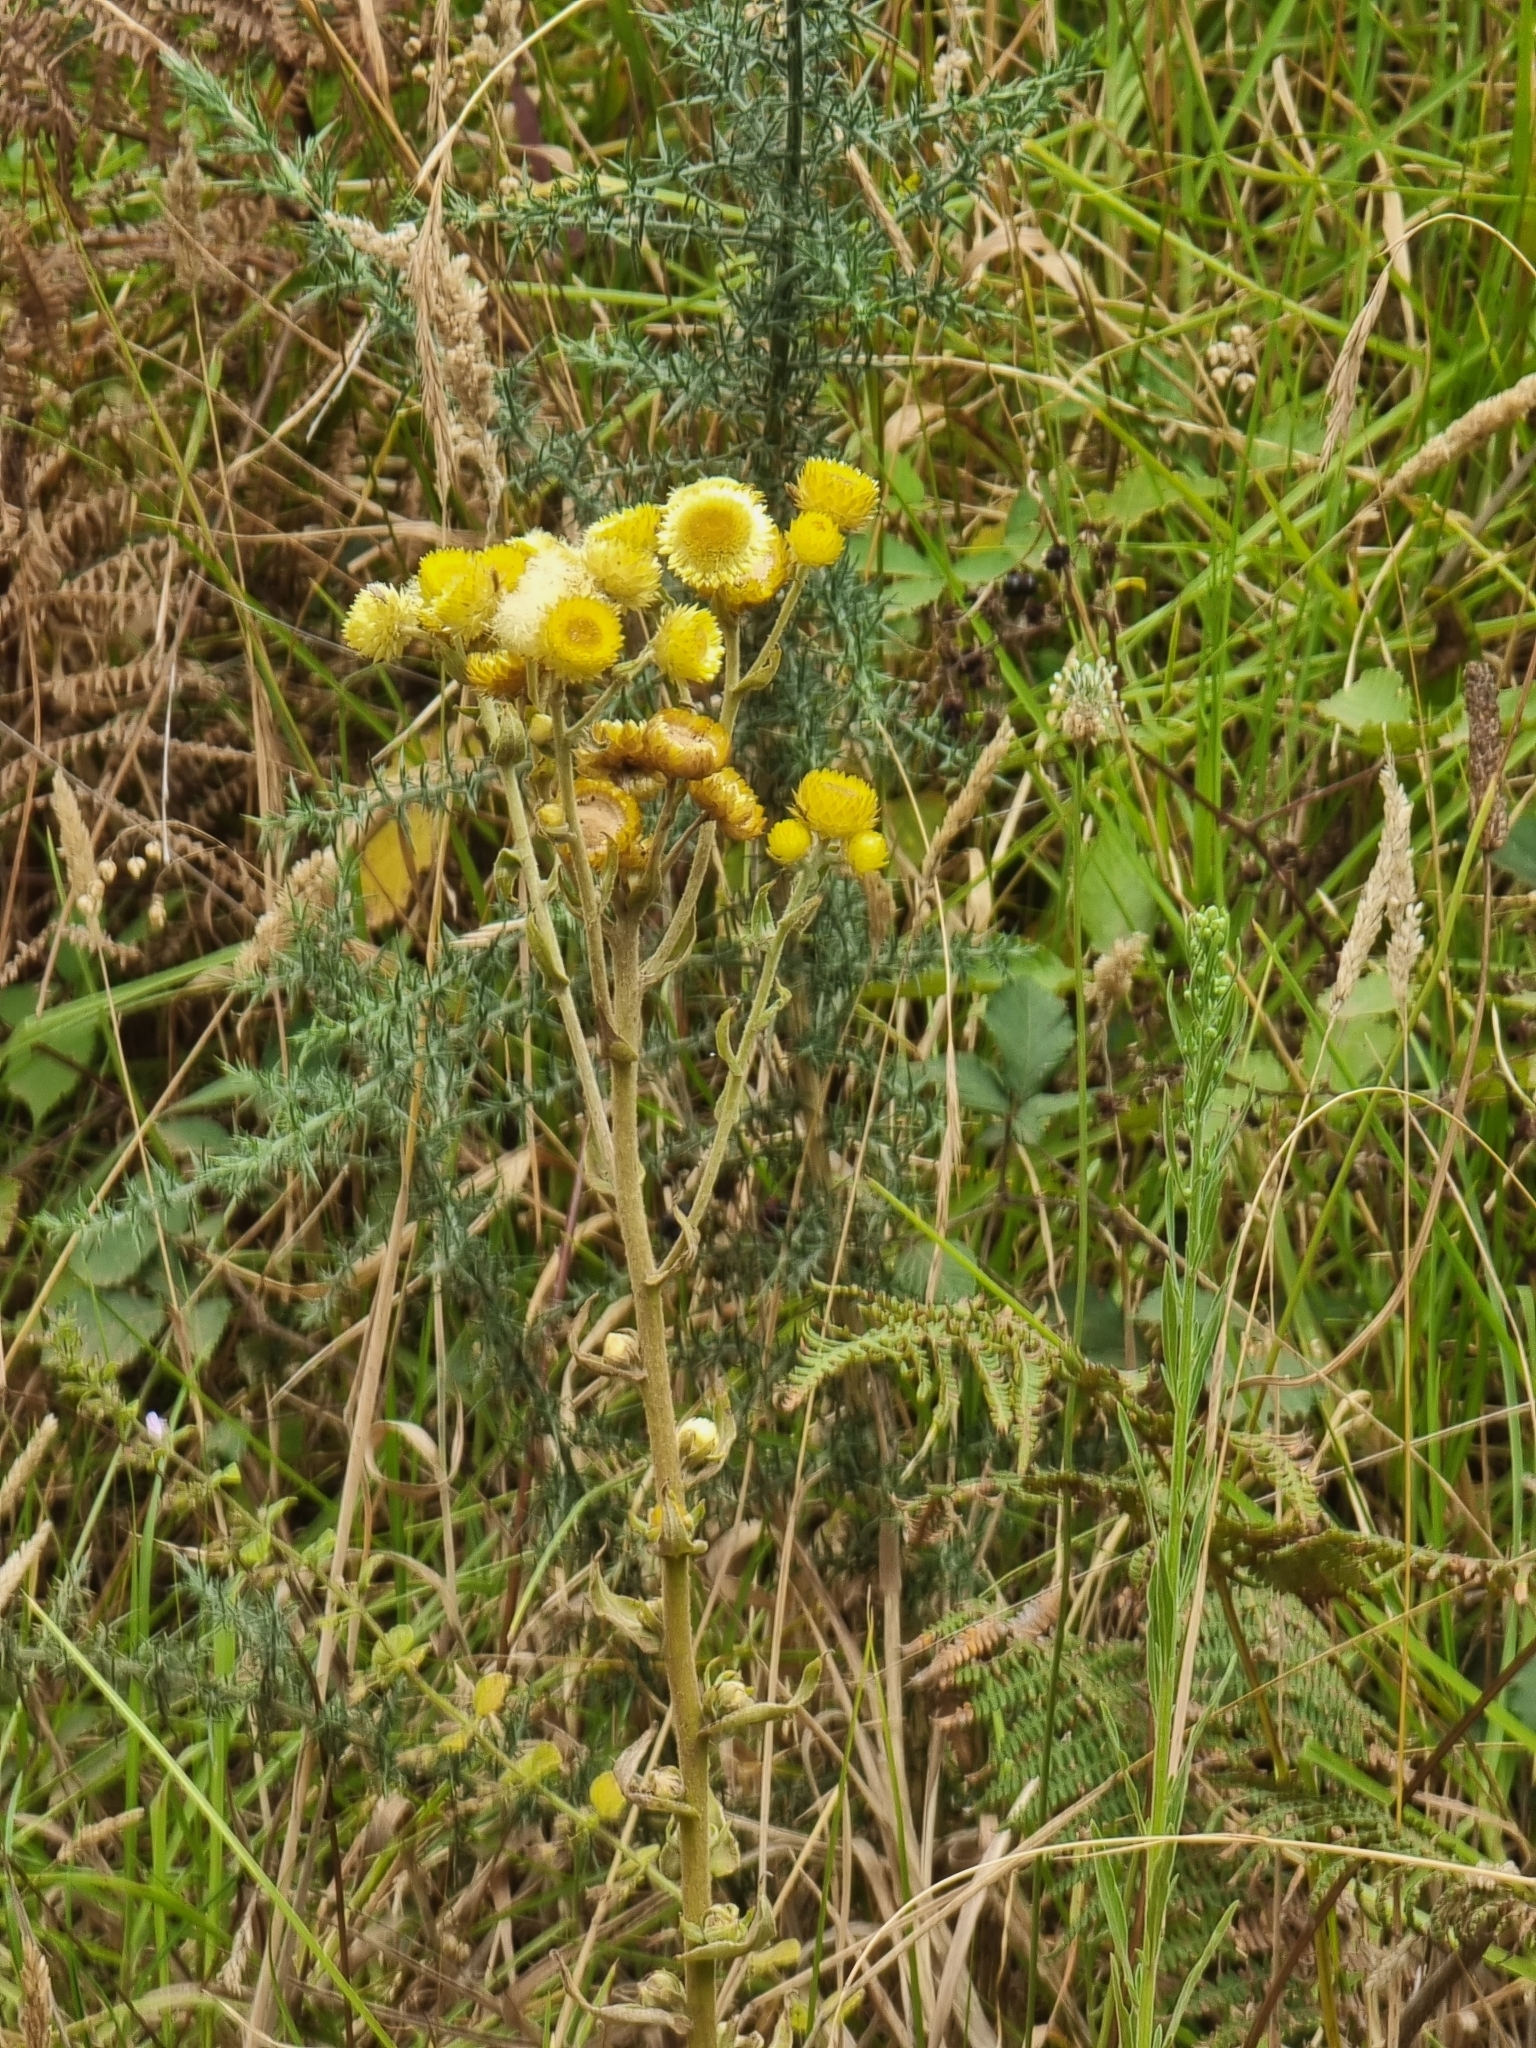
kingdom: Plantae
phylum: Tracheophyta
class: Magnoliopsida
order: Asterales
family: Asteraceae
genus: Helichrysum
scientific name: Helichrysum foetidum
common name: Stinking everlasting
